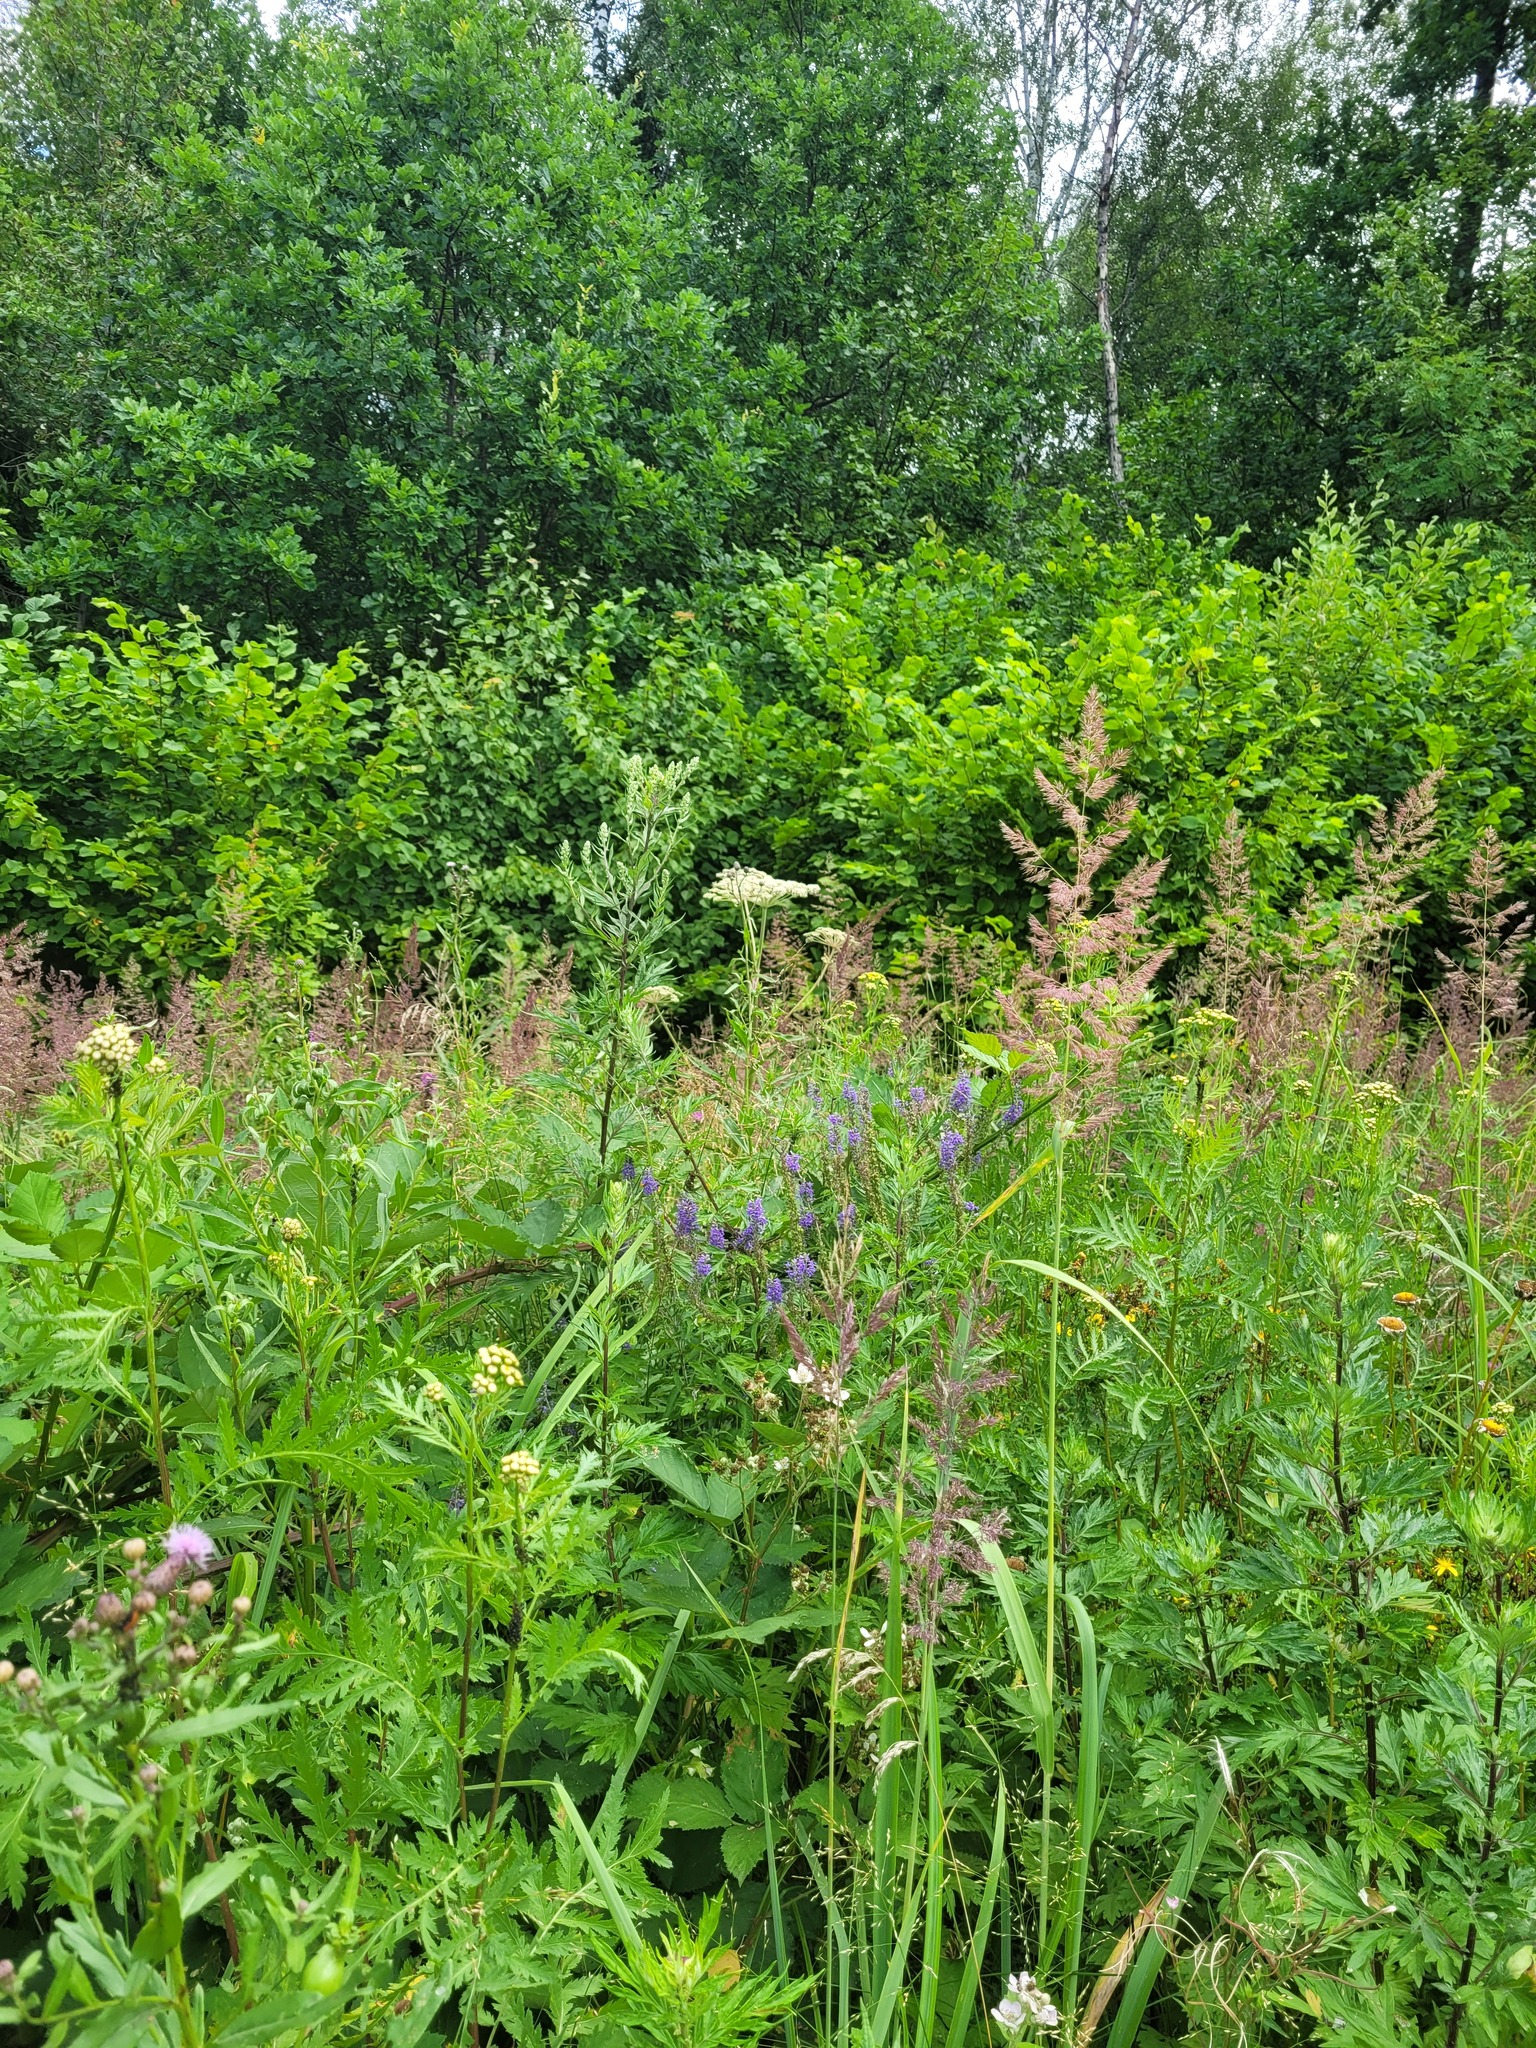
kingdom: Plantae
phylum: Tracheophyta
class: Magnoliopsida
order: Lamiales
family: Plantaginaceae
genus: Veronica
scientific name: Veronica longifolia
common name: Garden speedwell
